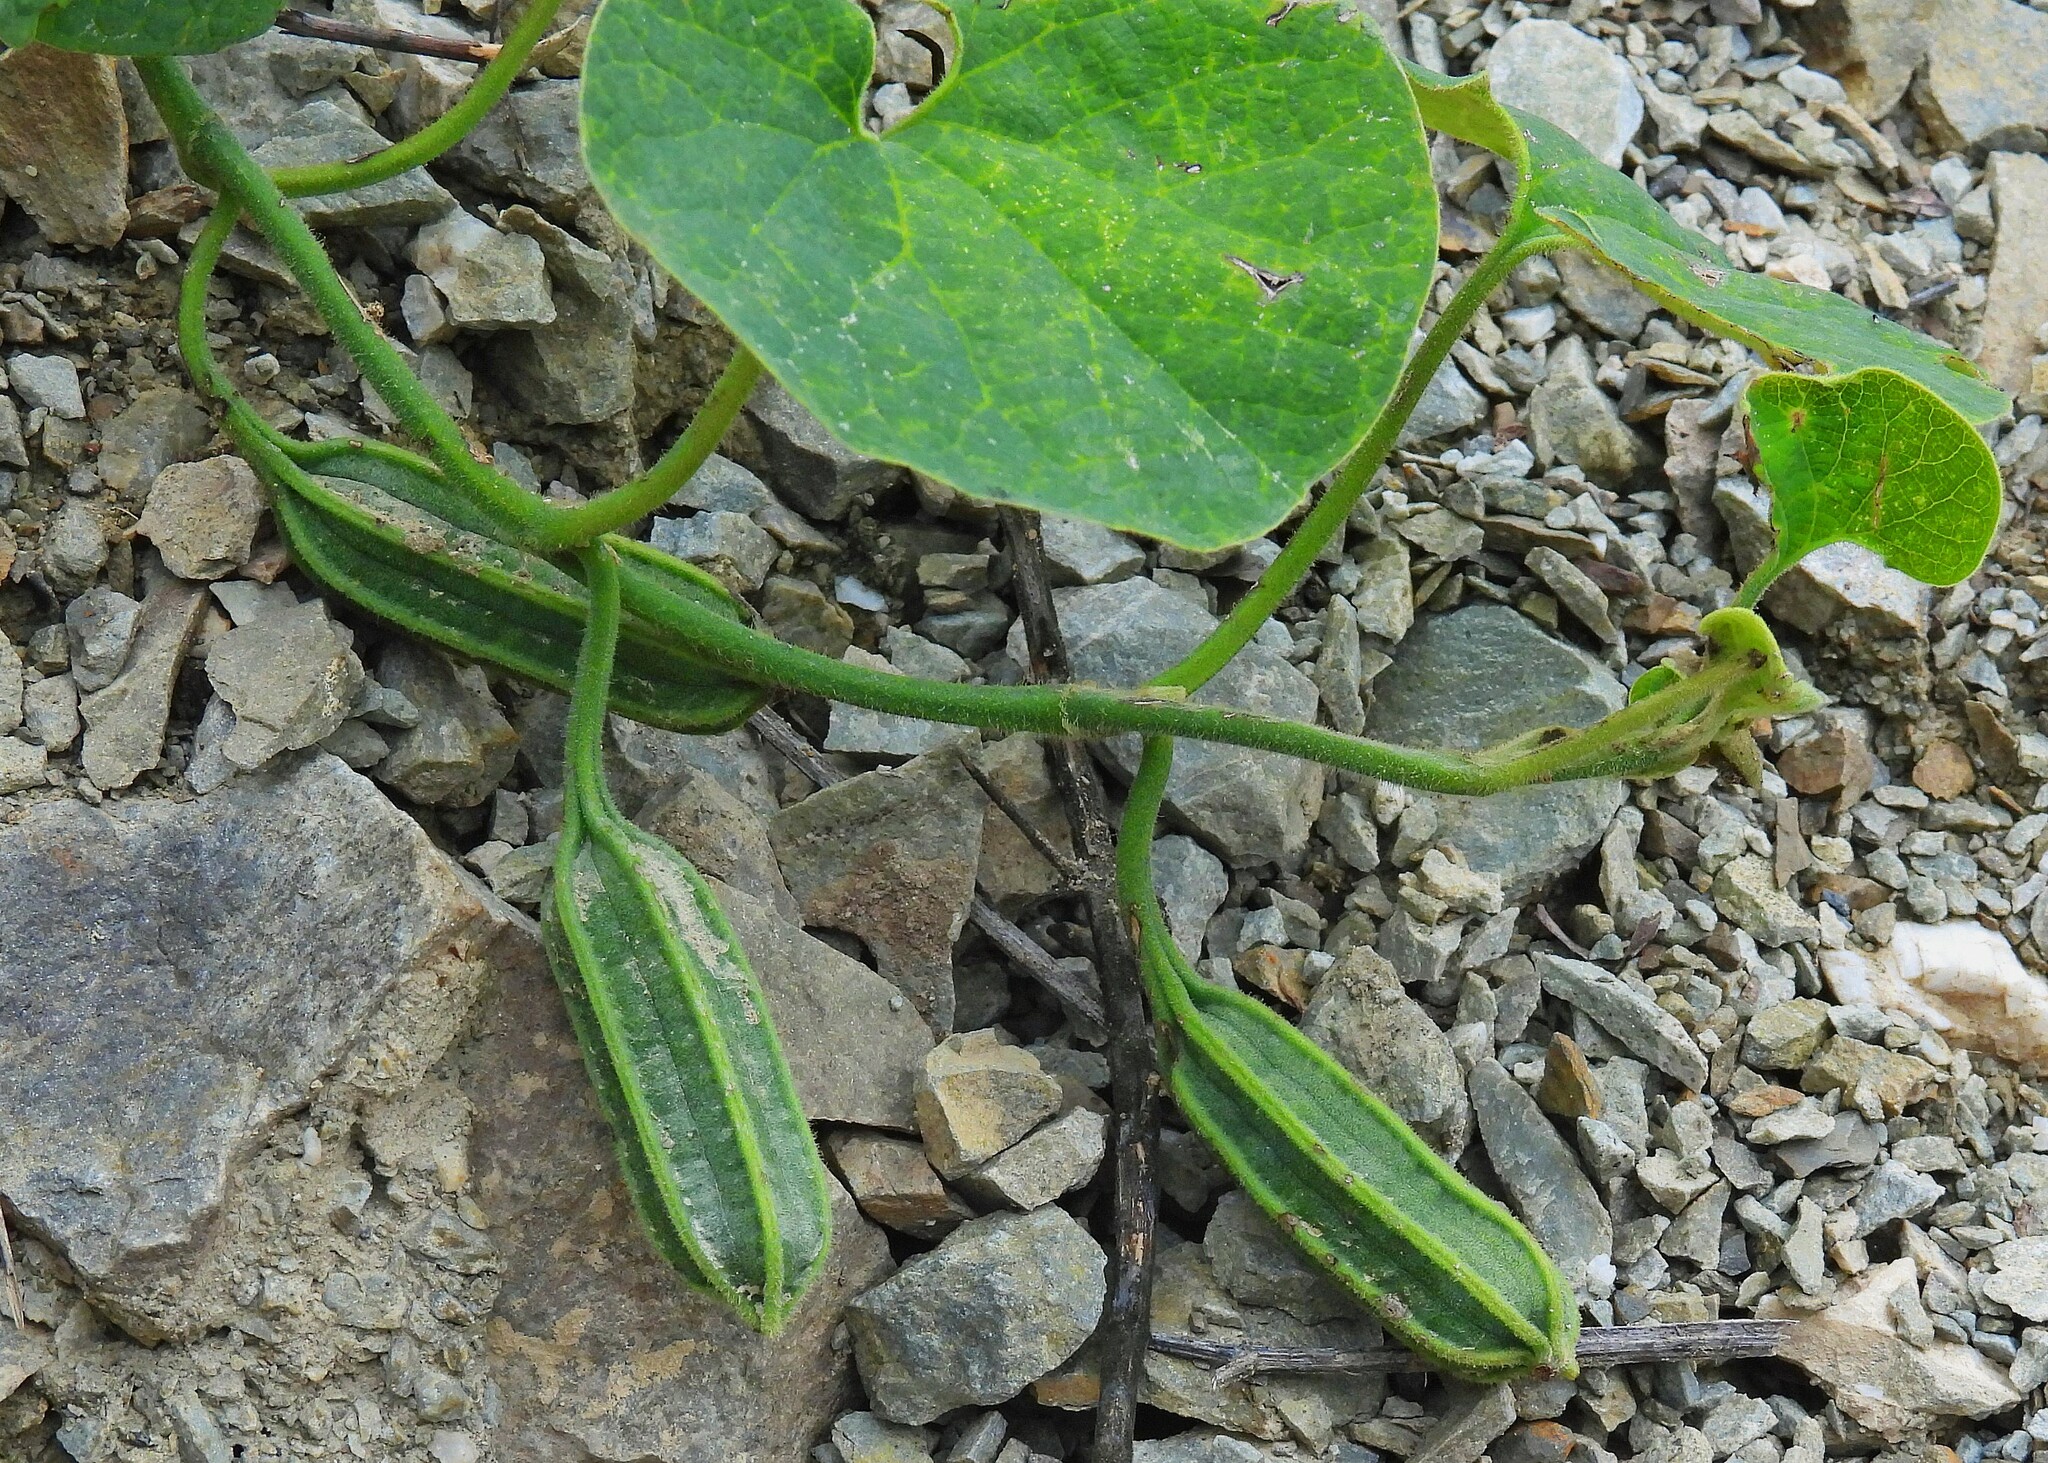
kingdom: Plantae
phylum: Tracheophyta
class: Magnoliopsida
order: Piperales
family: Aristolochiaceae
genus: Aristolochia
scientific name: Aristolochia prostrata
